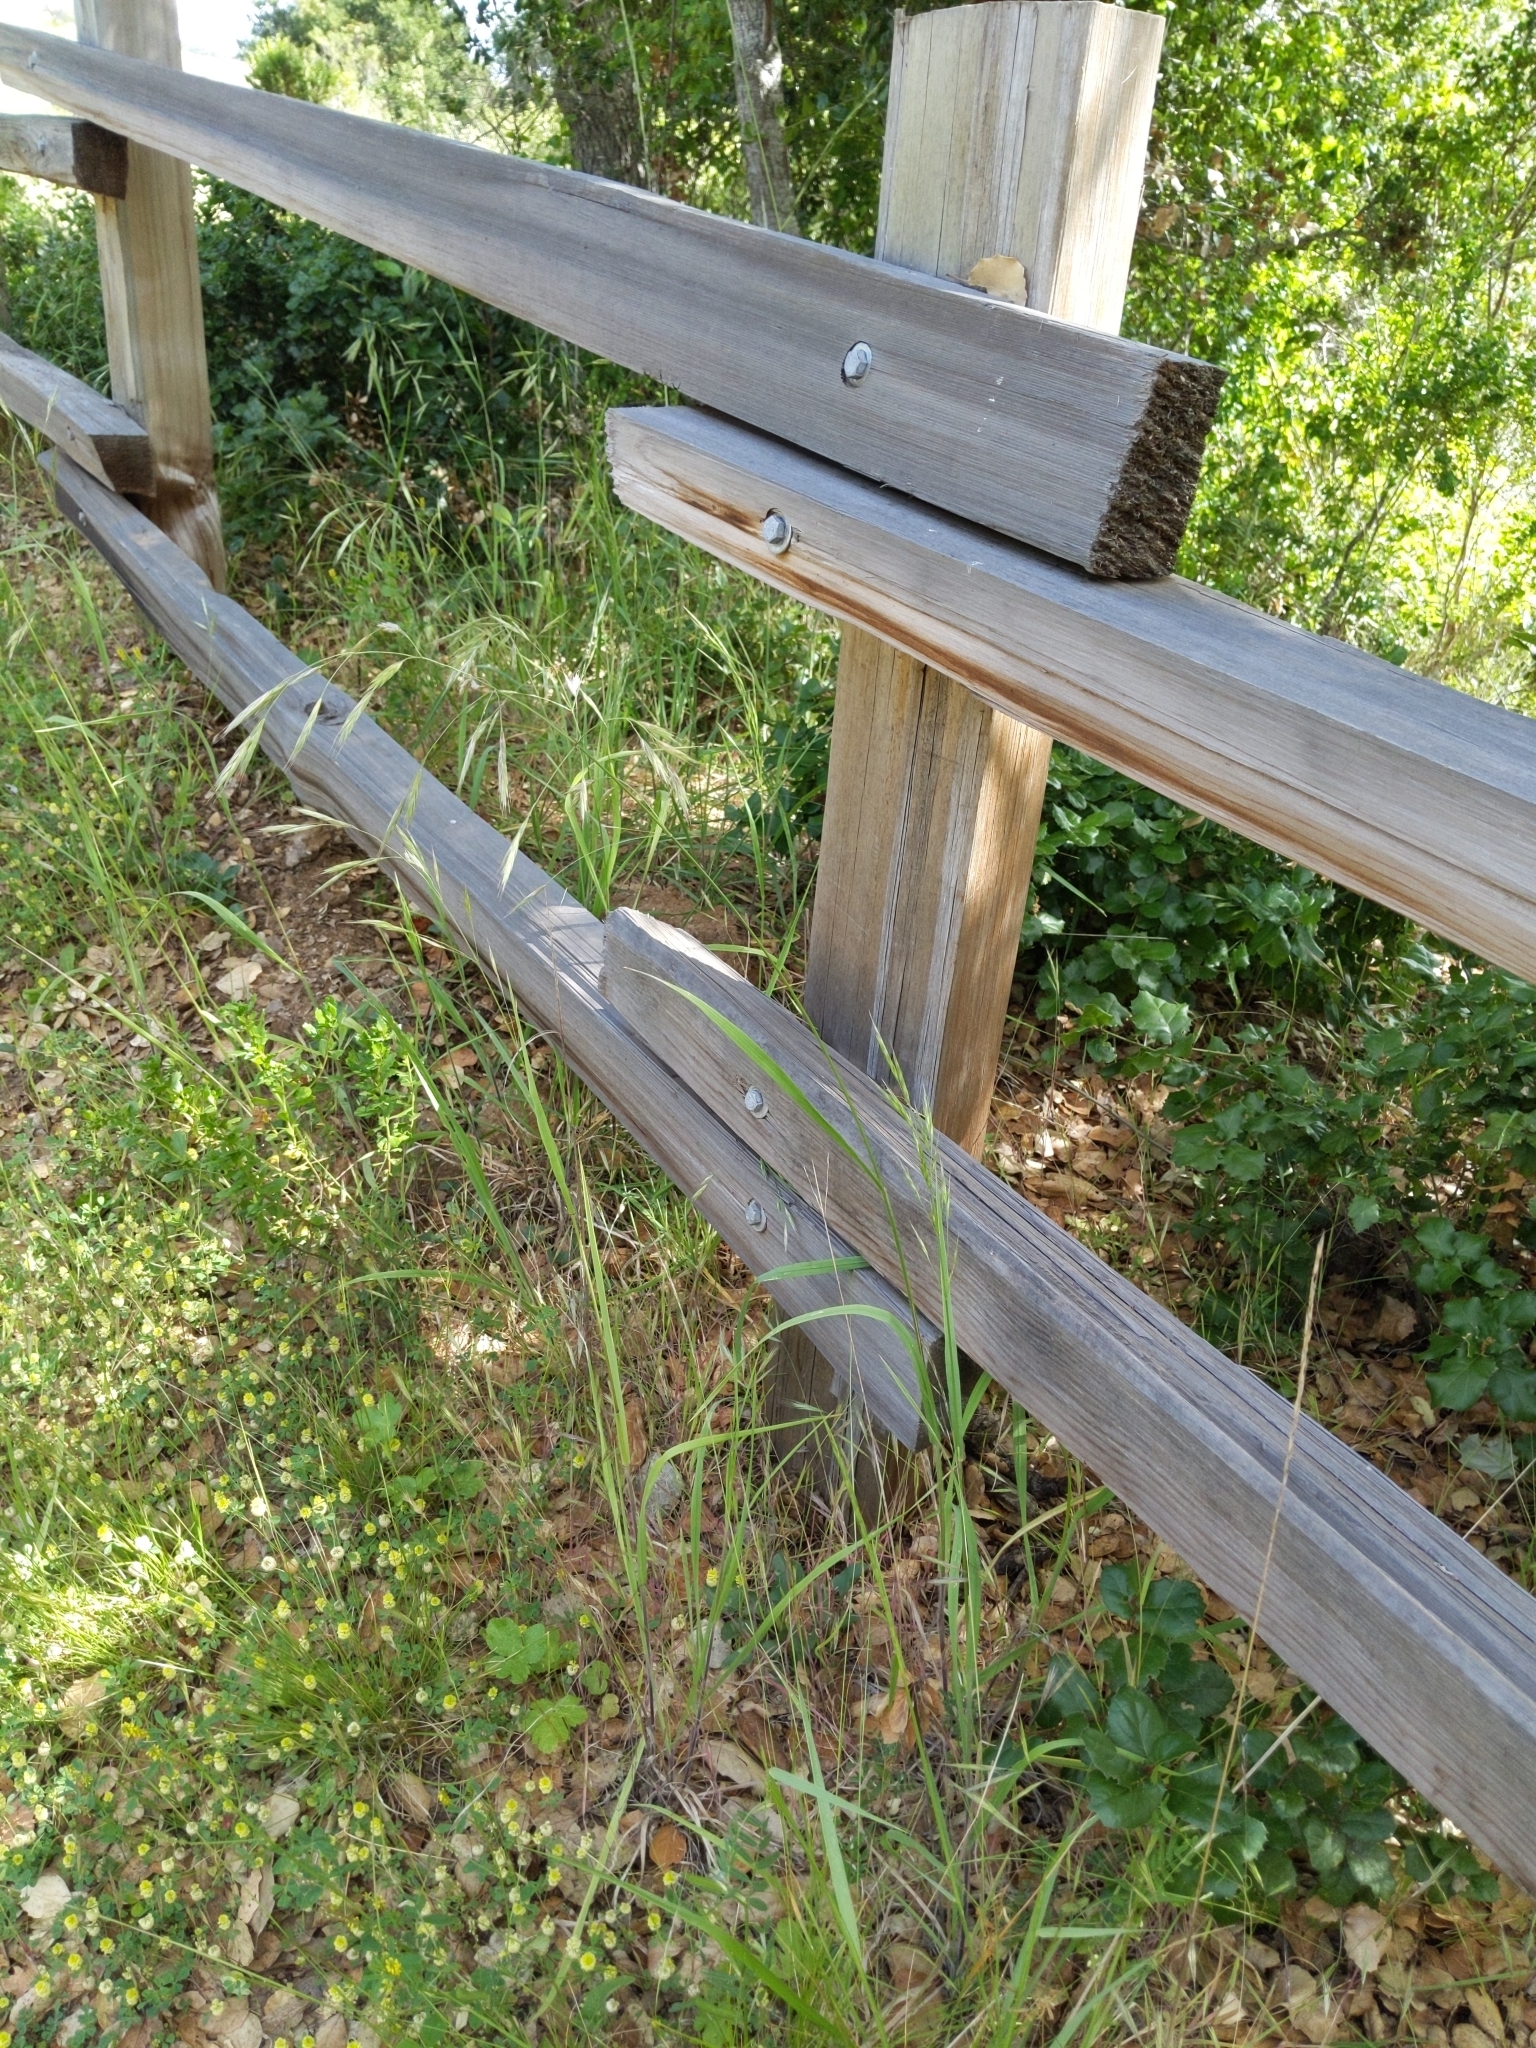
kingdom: Plantae
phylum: Tracheophyta
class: Liliopsida
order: Poales
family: Poaceae
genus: Bromus
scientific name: Bromus carinatus
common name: Mountain brome
